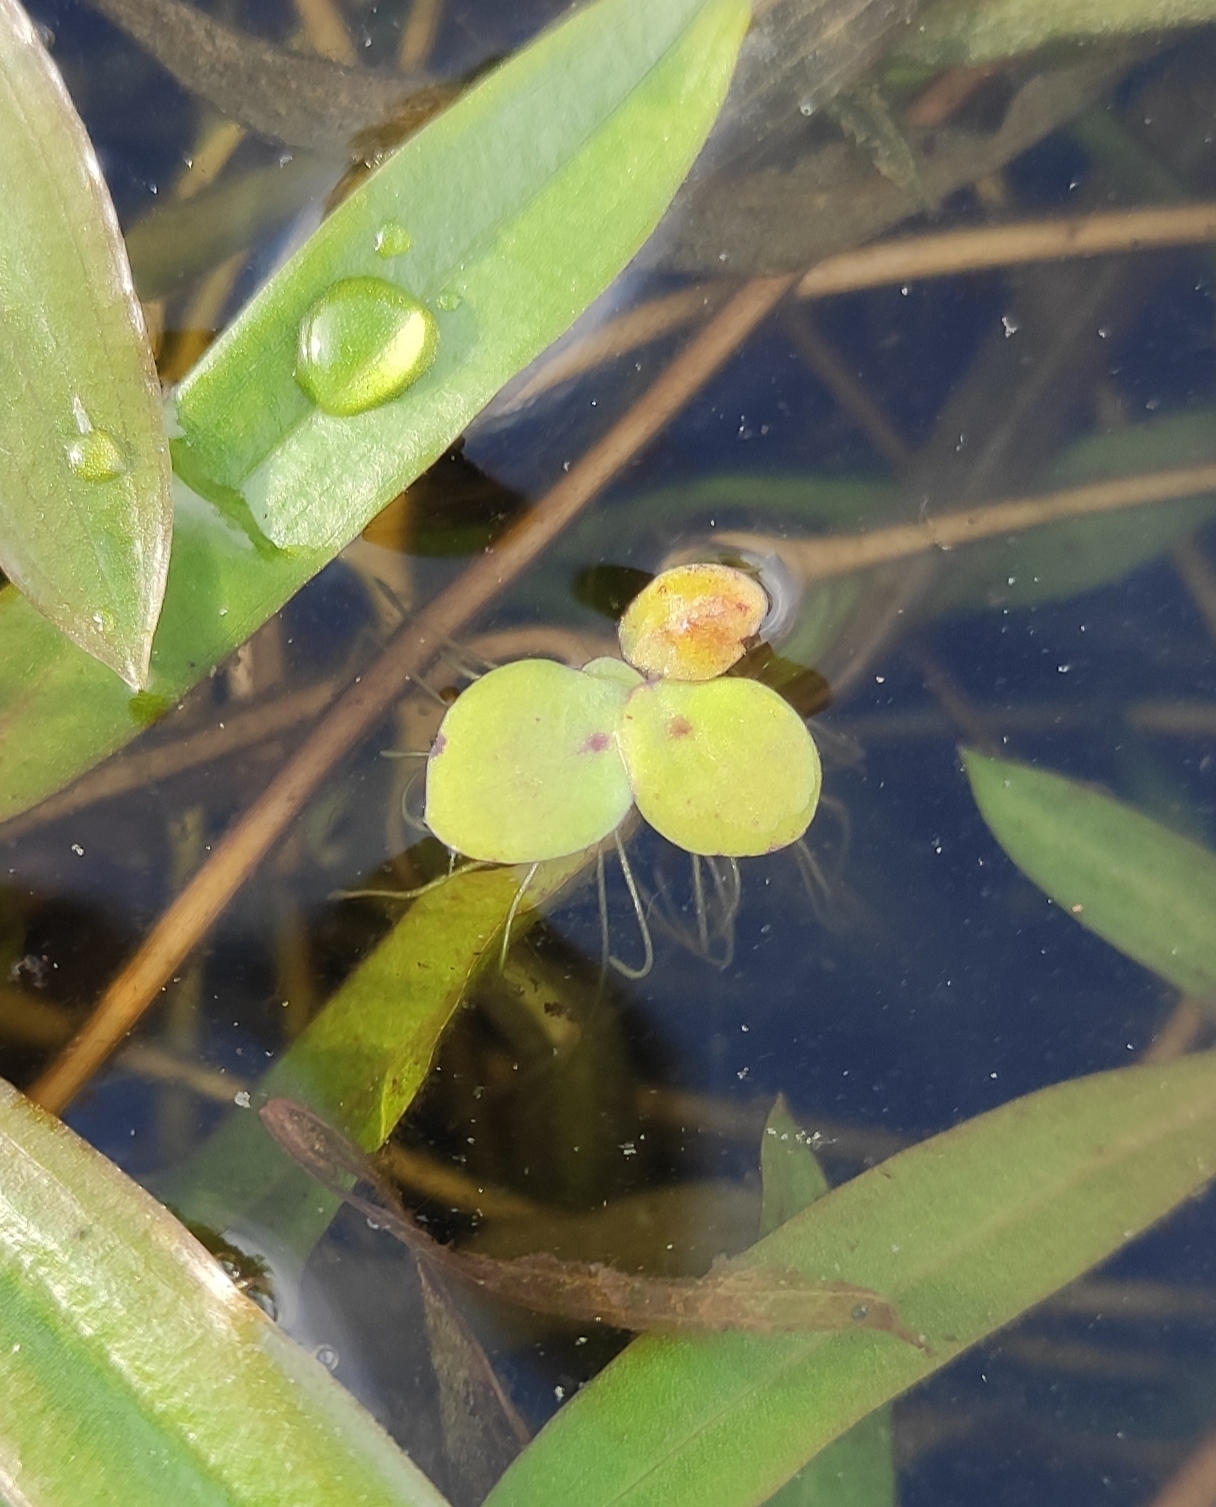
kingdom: Plantae
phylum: Tracheophyta
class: Liliopsida
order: Alismatales
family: Araceae
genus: Spirodela
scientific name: Spirodela polyrhiza
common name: Great duckweed
